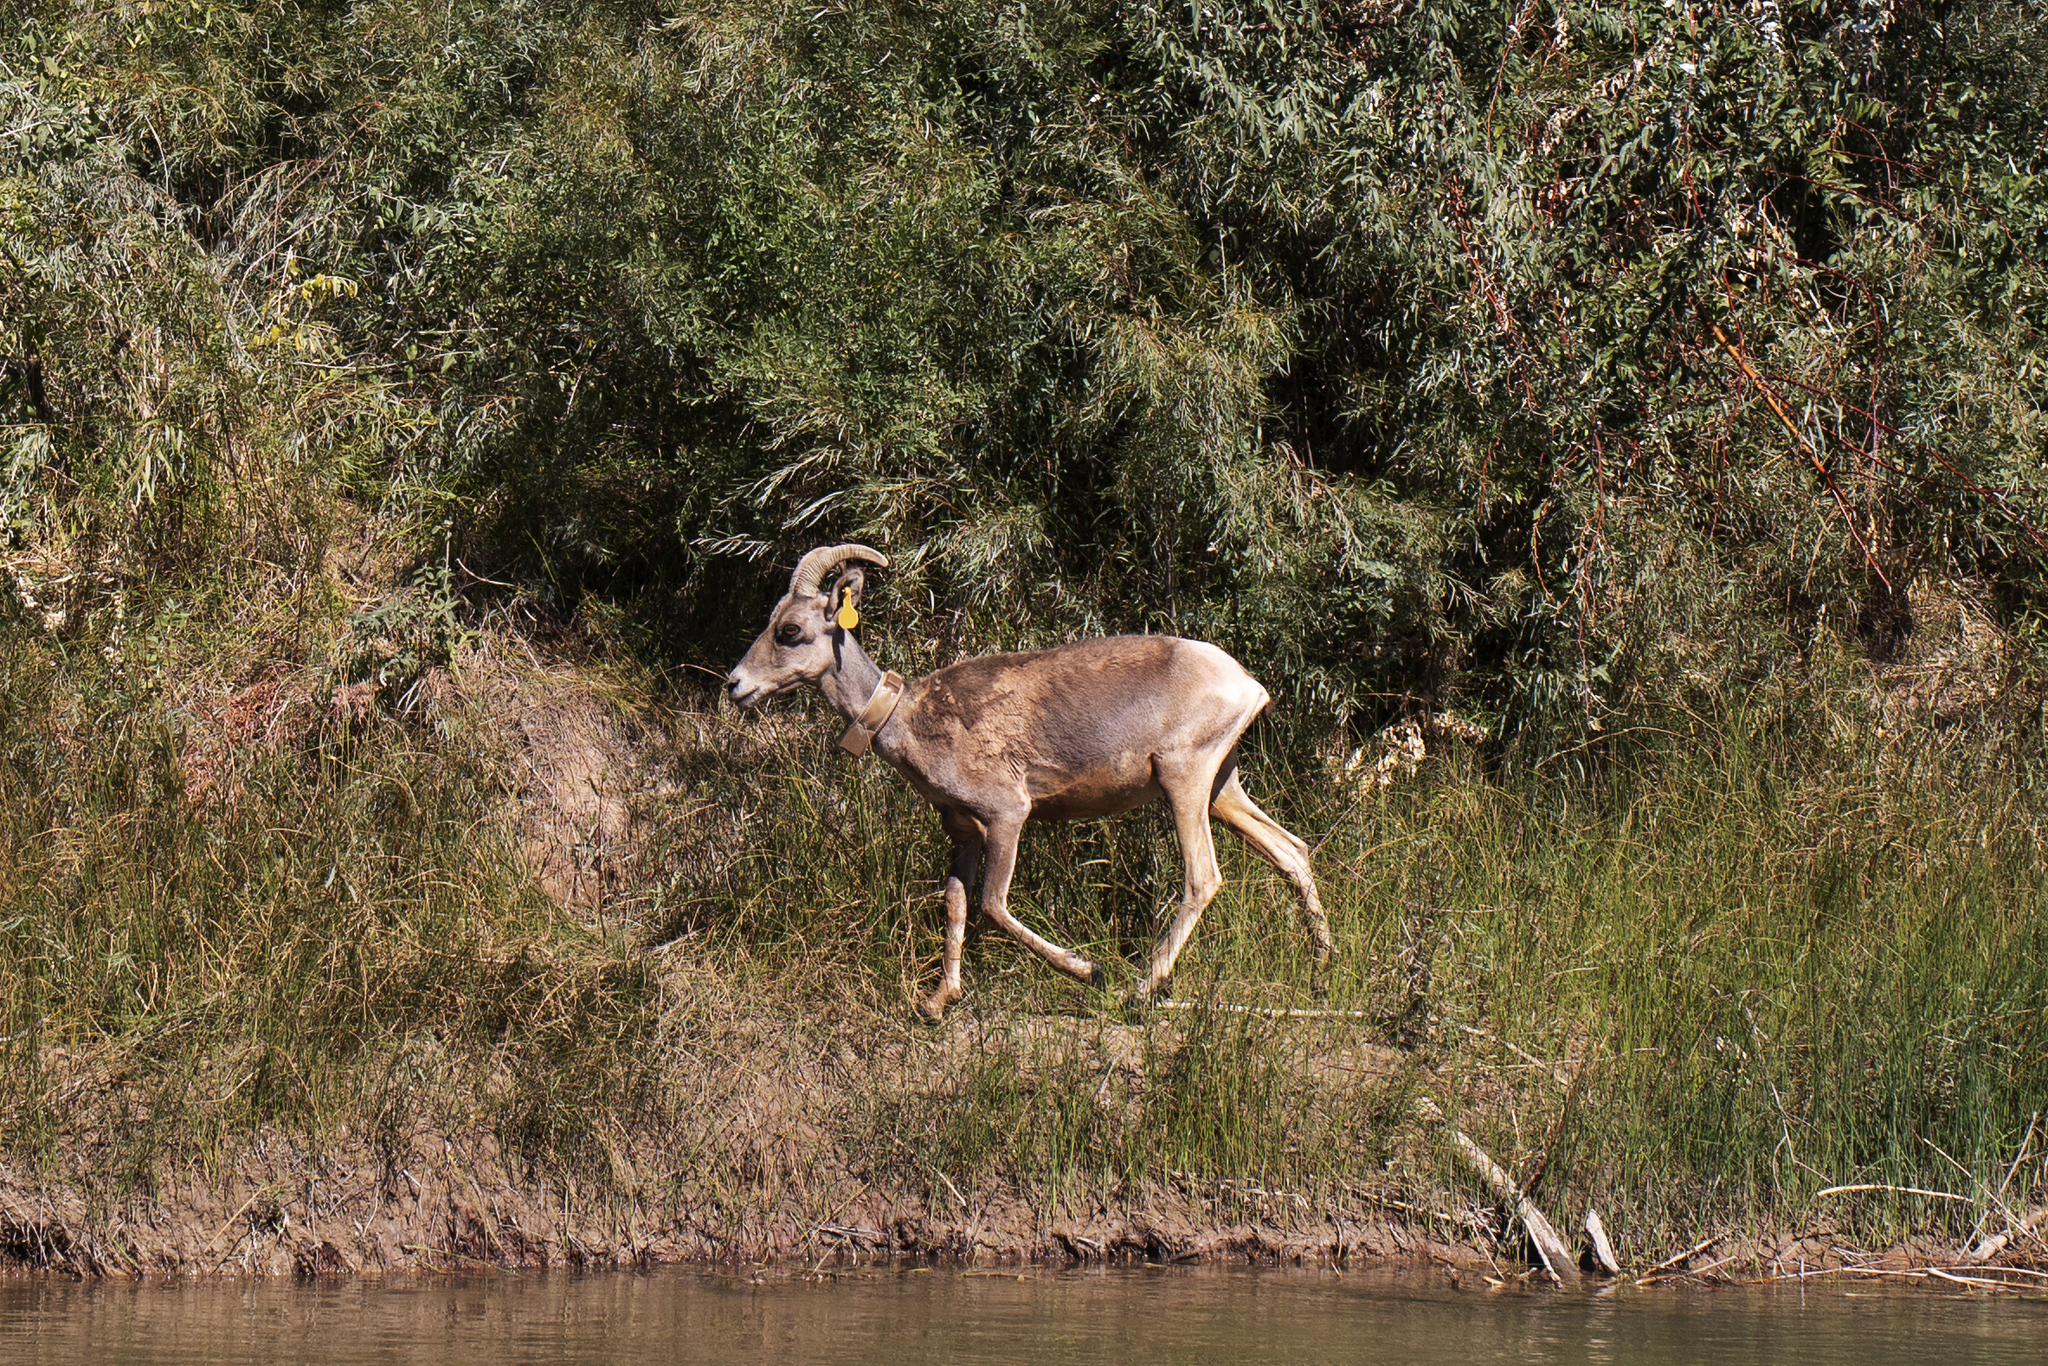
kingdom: Animalia
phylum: Chordata
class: Mammalia
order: Artiodactyla
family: Bovidae
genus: Ovis
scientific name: Ovis canadensis
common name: Bighorn sheep
